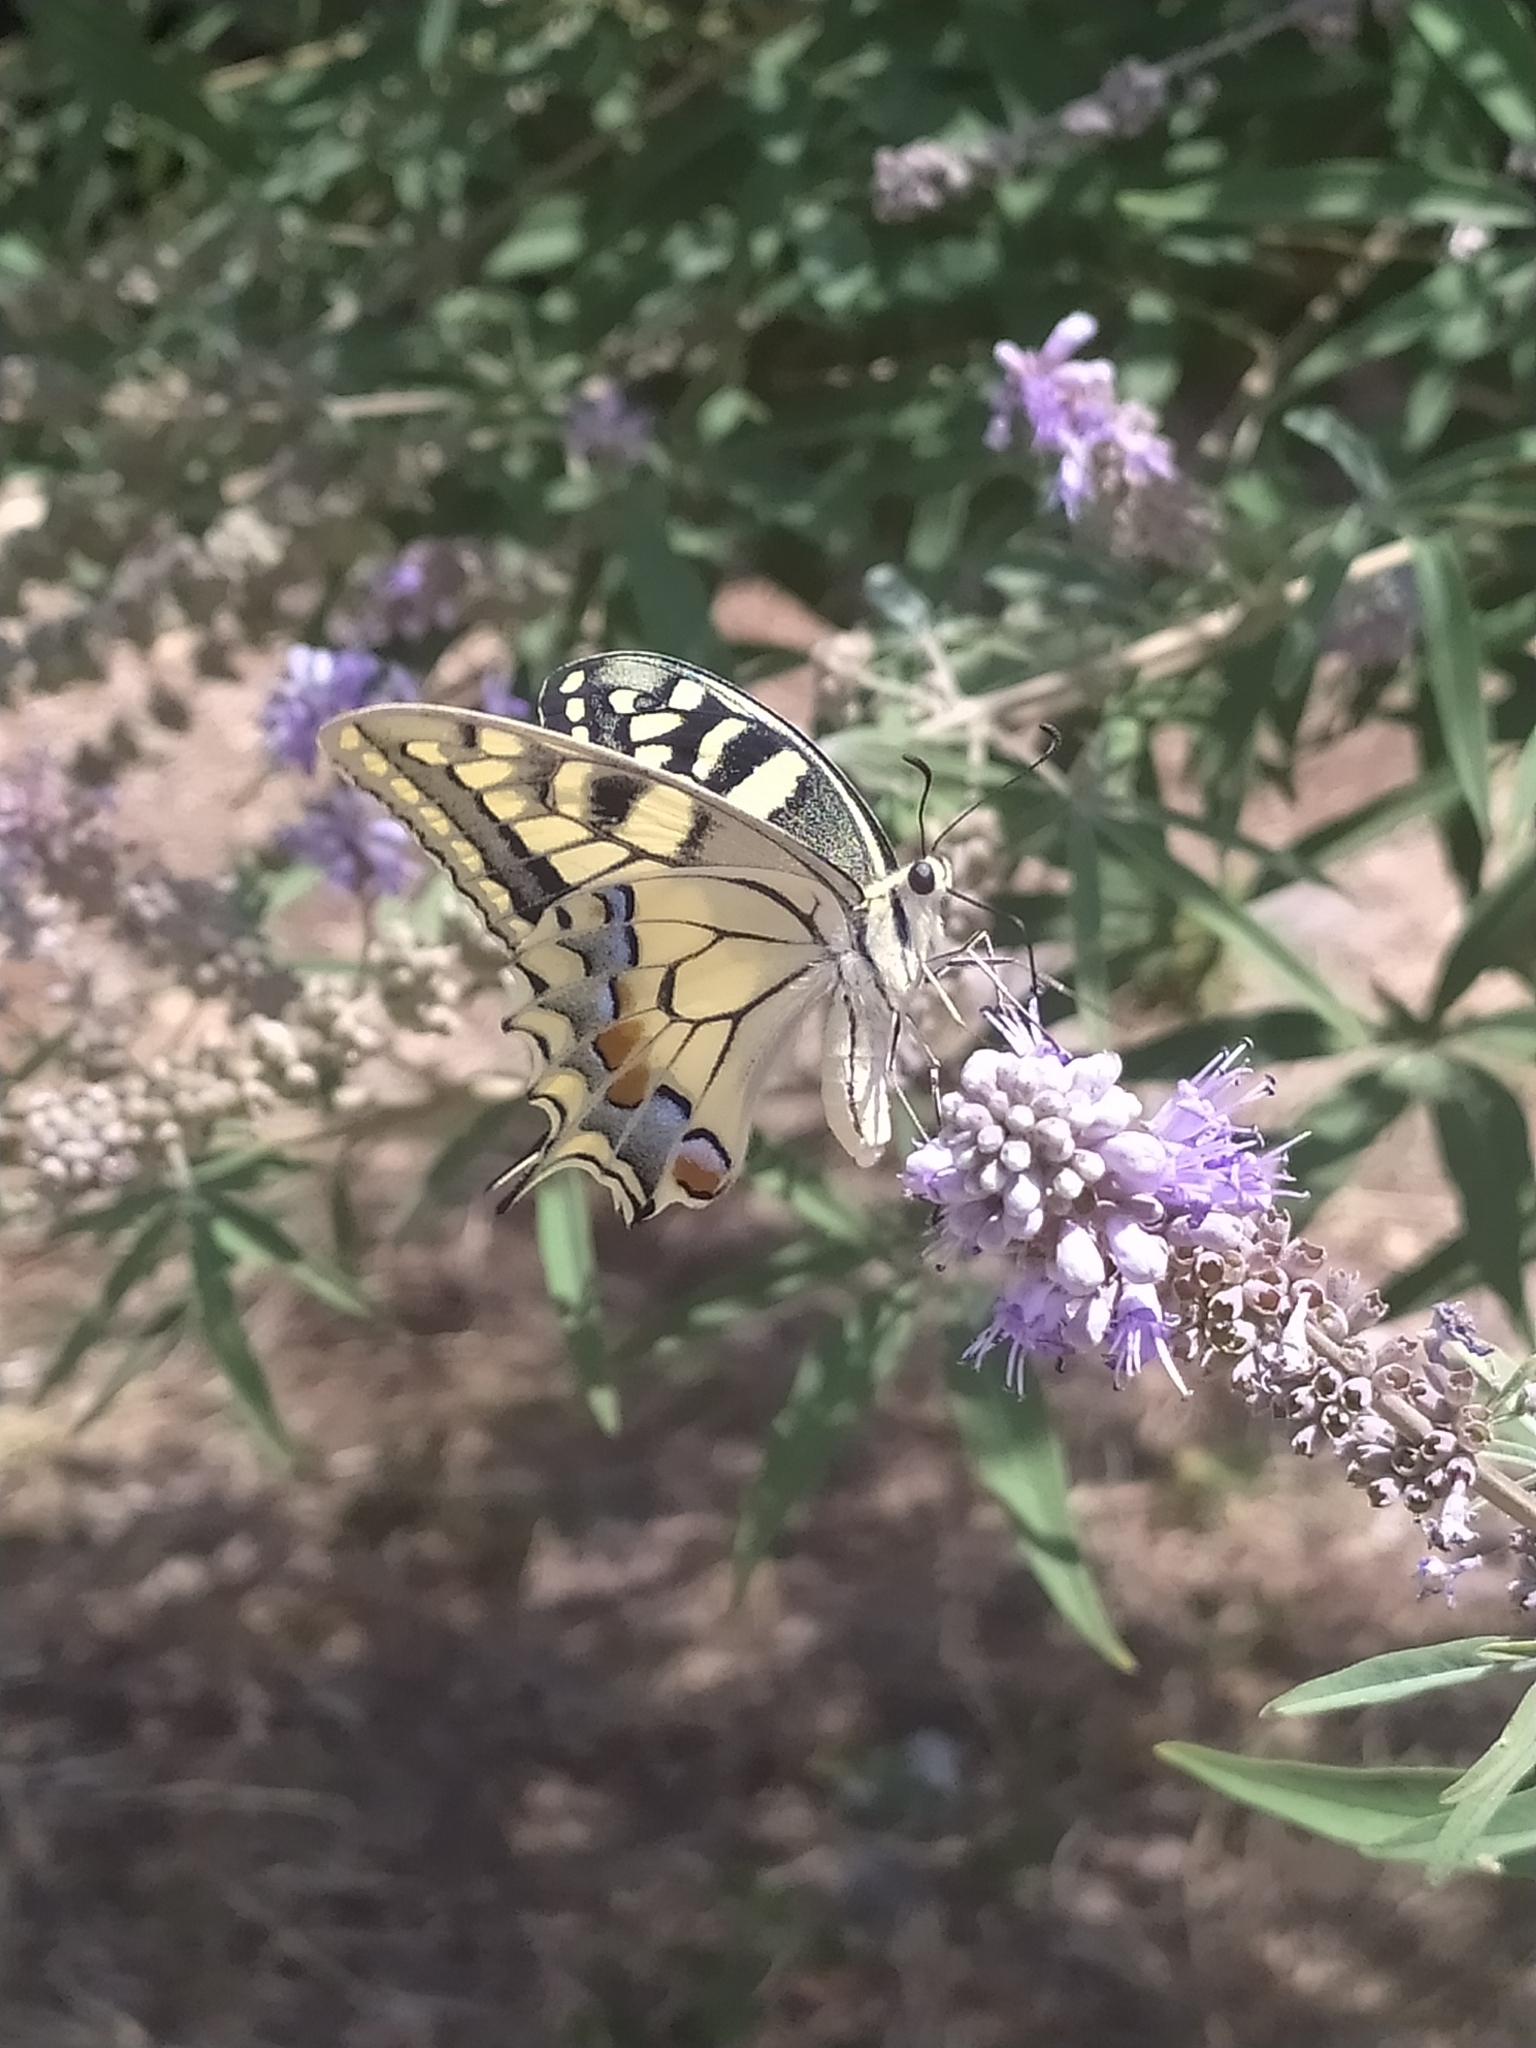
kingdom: Animalia
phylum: Arthropoda
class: Insecta
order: Lepidoptera
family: Papilionidae
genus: Papilio
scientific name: Papilio machaon
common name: Swallowtail
